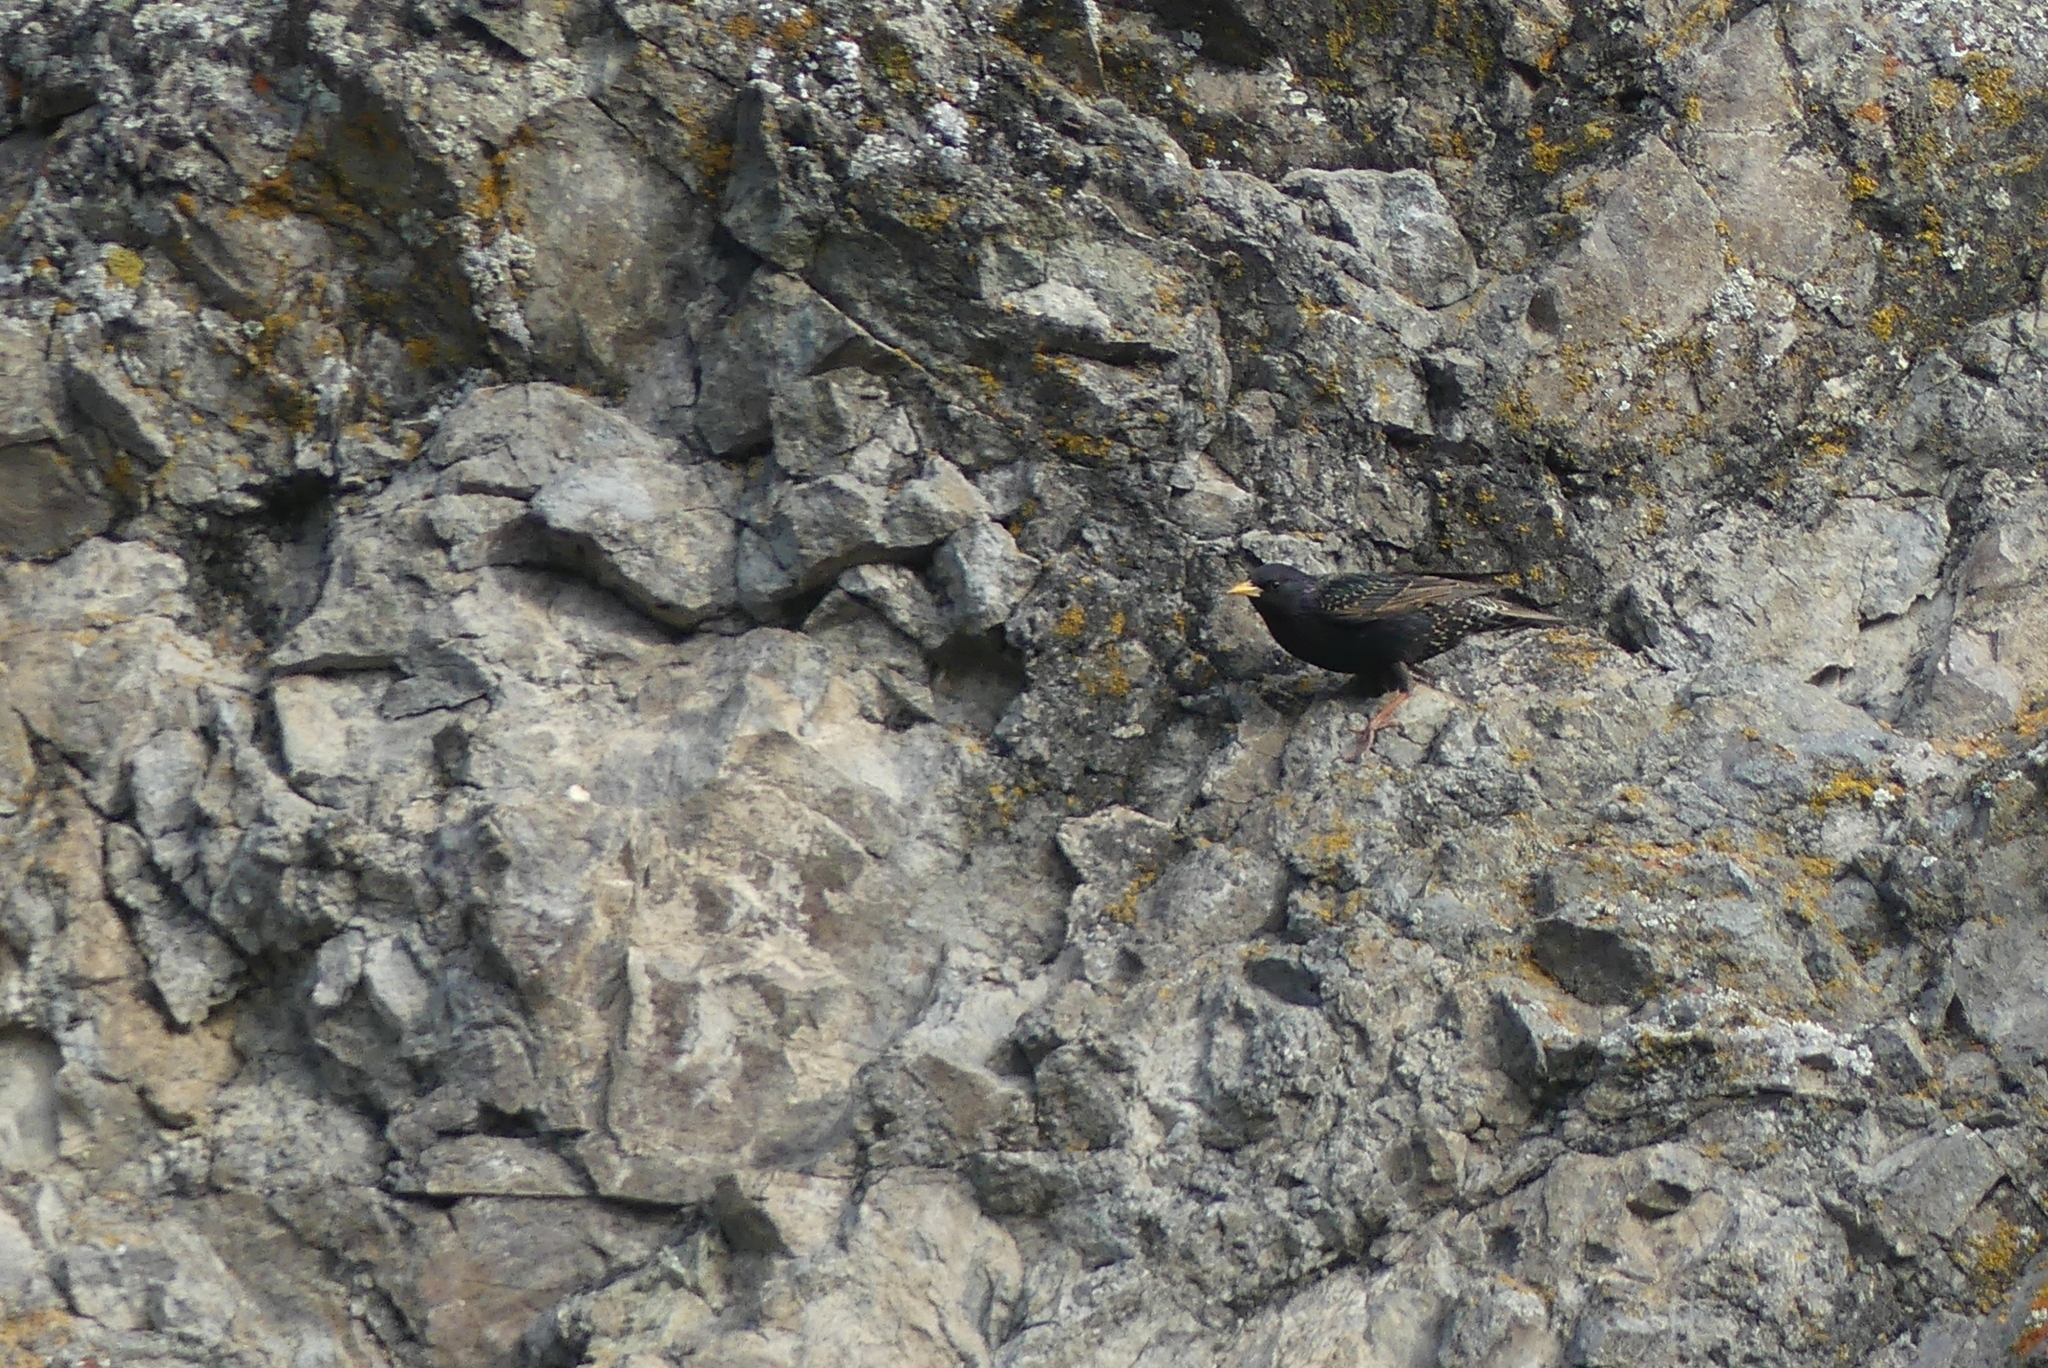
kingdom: Animalia
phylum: Chordata
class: Aves
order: Passeriformes
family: Sturnidae
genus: Sturnus
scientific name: Sturnus vulgaris
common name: Common starling
